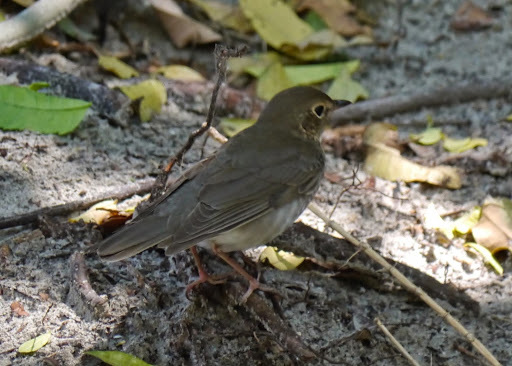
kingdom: Animalia
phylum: Chordata
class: Aves
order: Passeriformes
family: Turdidae
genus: Catharus
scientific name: Catharus ustulatus
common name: Swainson's thrush
